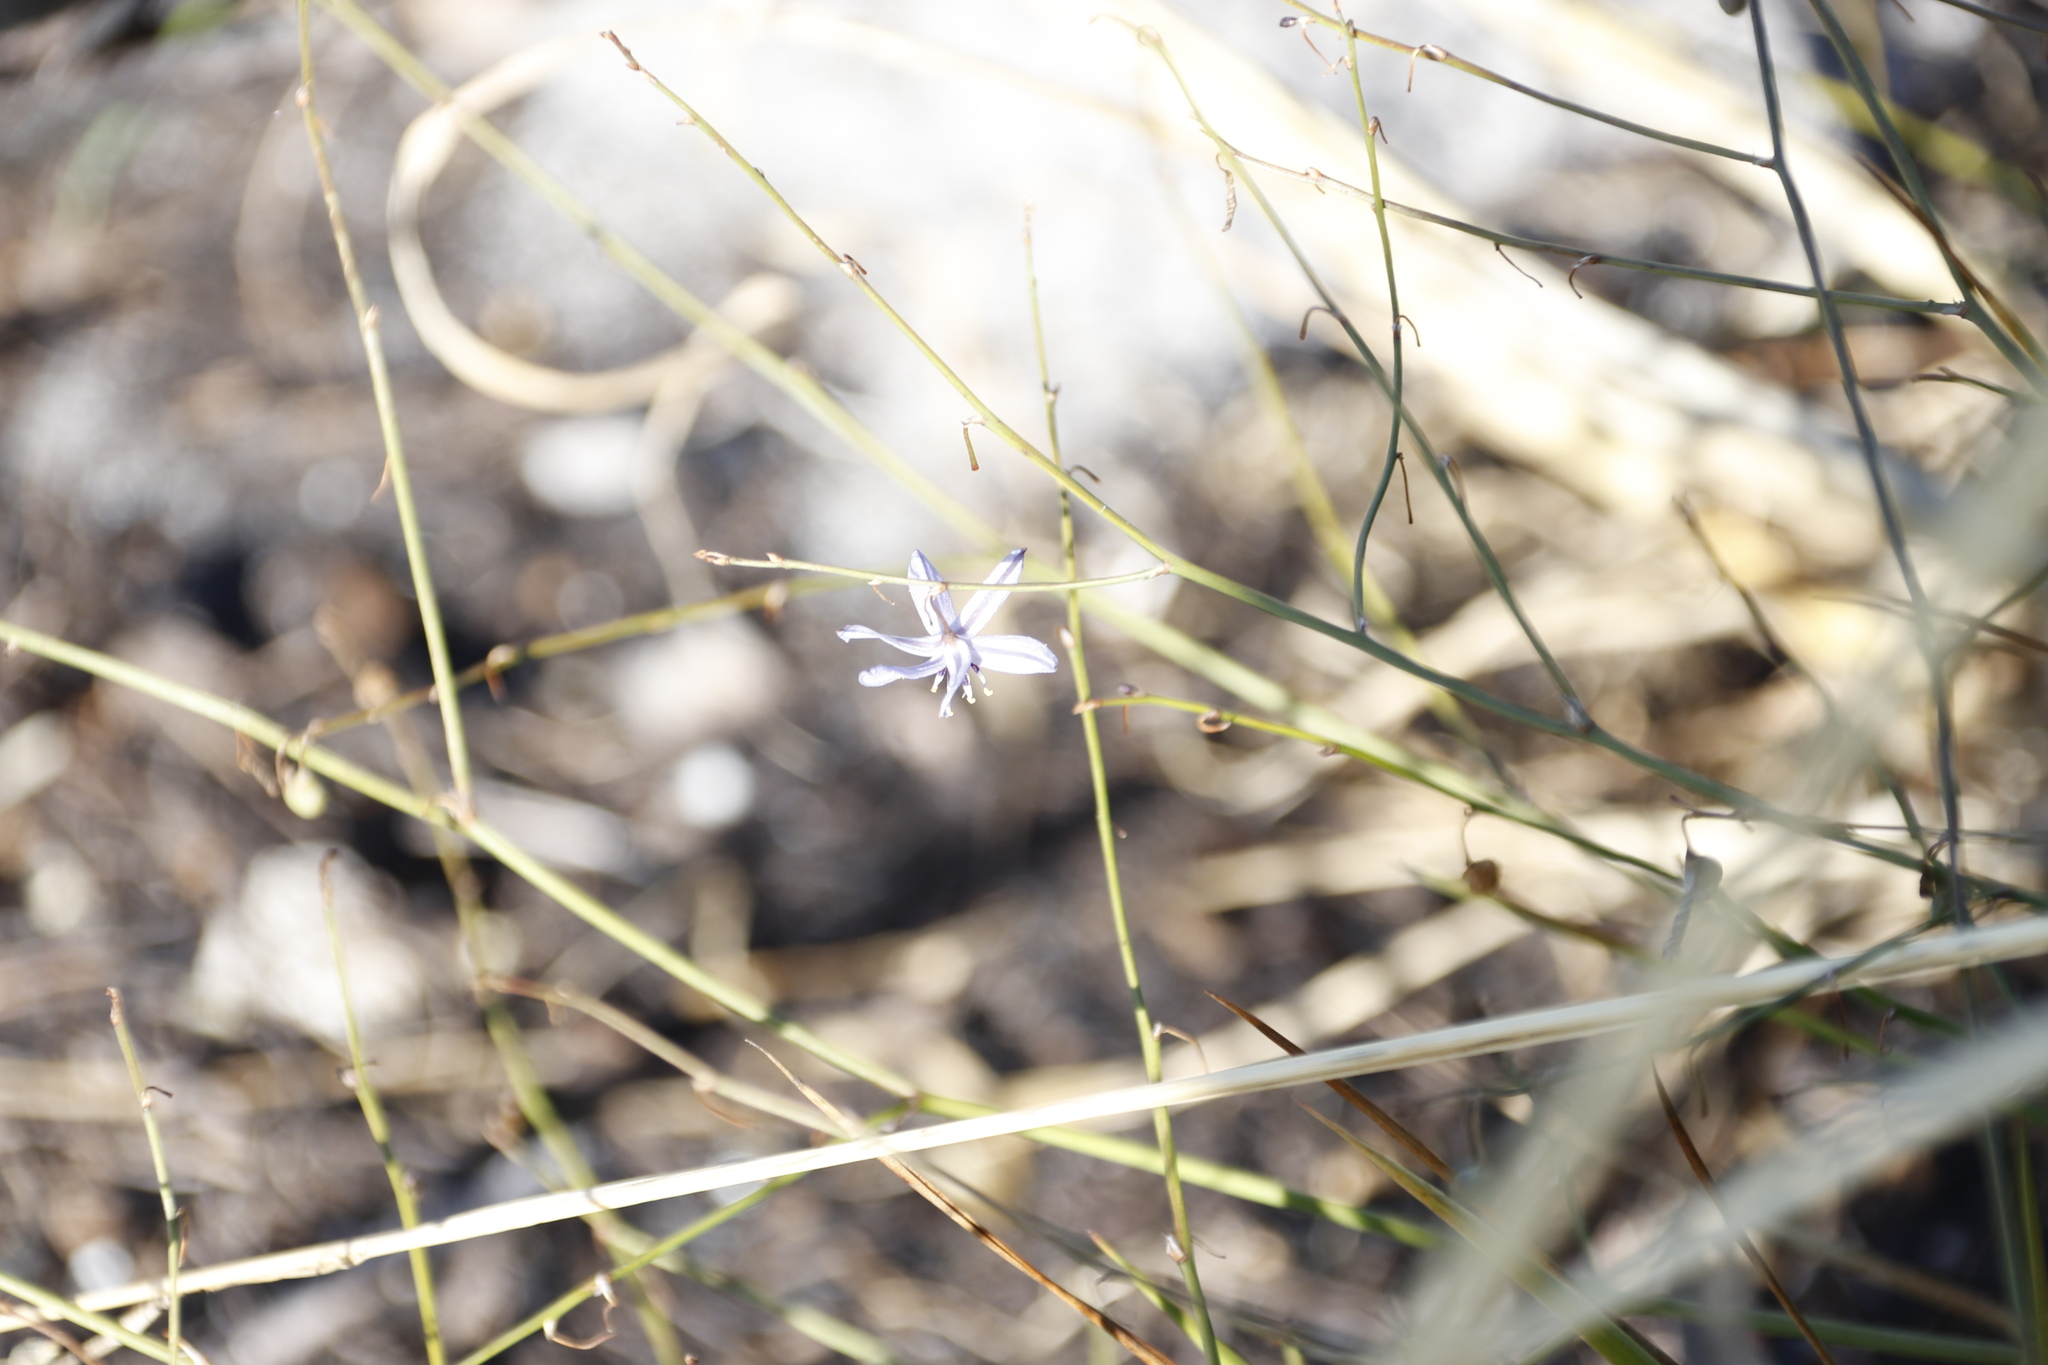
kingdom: Plantae
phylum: Tracheophyta
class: Liliopsida
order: Asparagales
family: Asphodelaceae
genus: Caesia
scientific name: Caesia contorta
